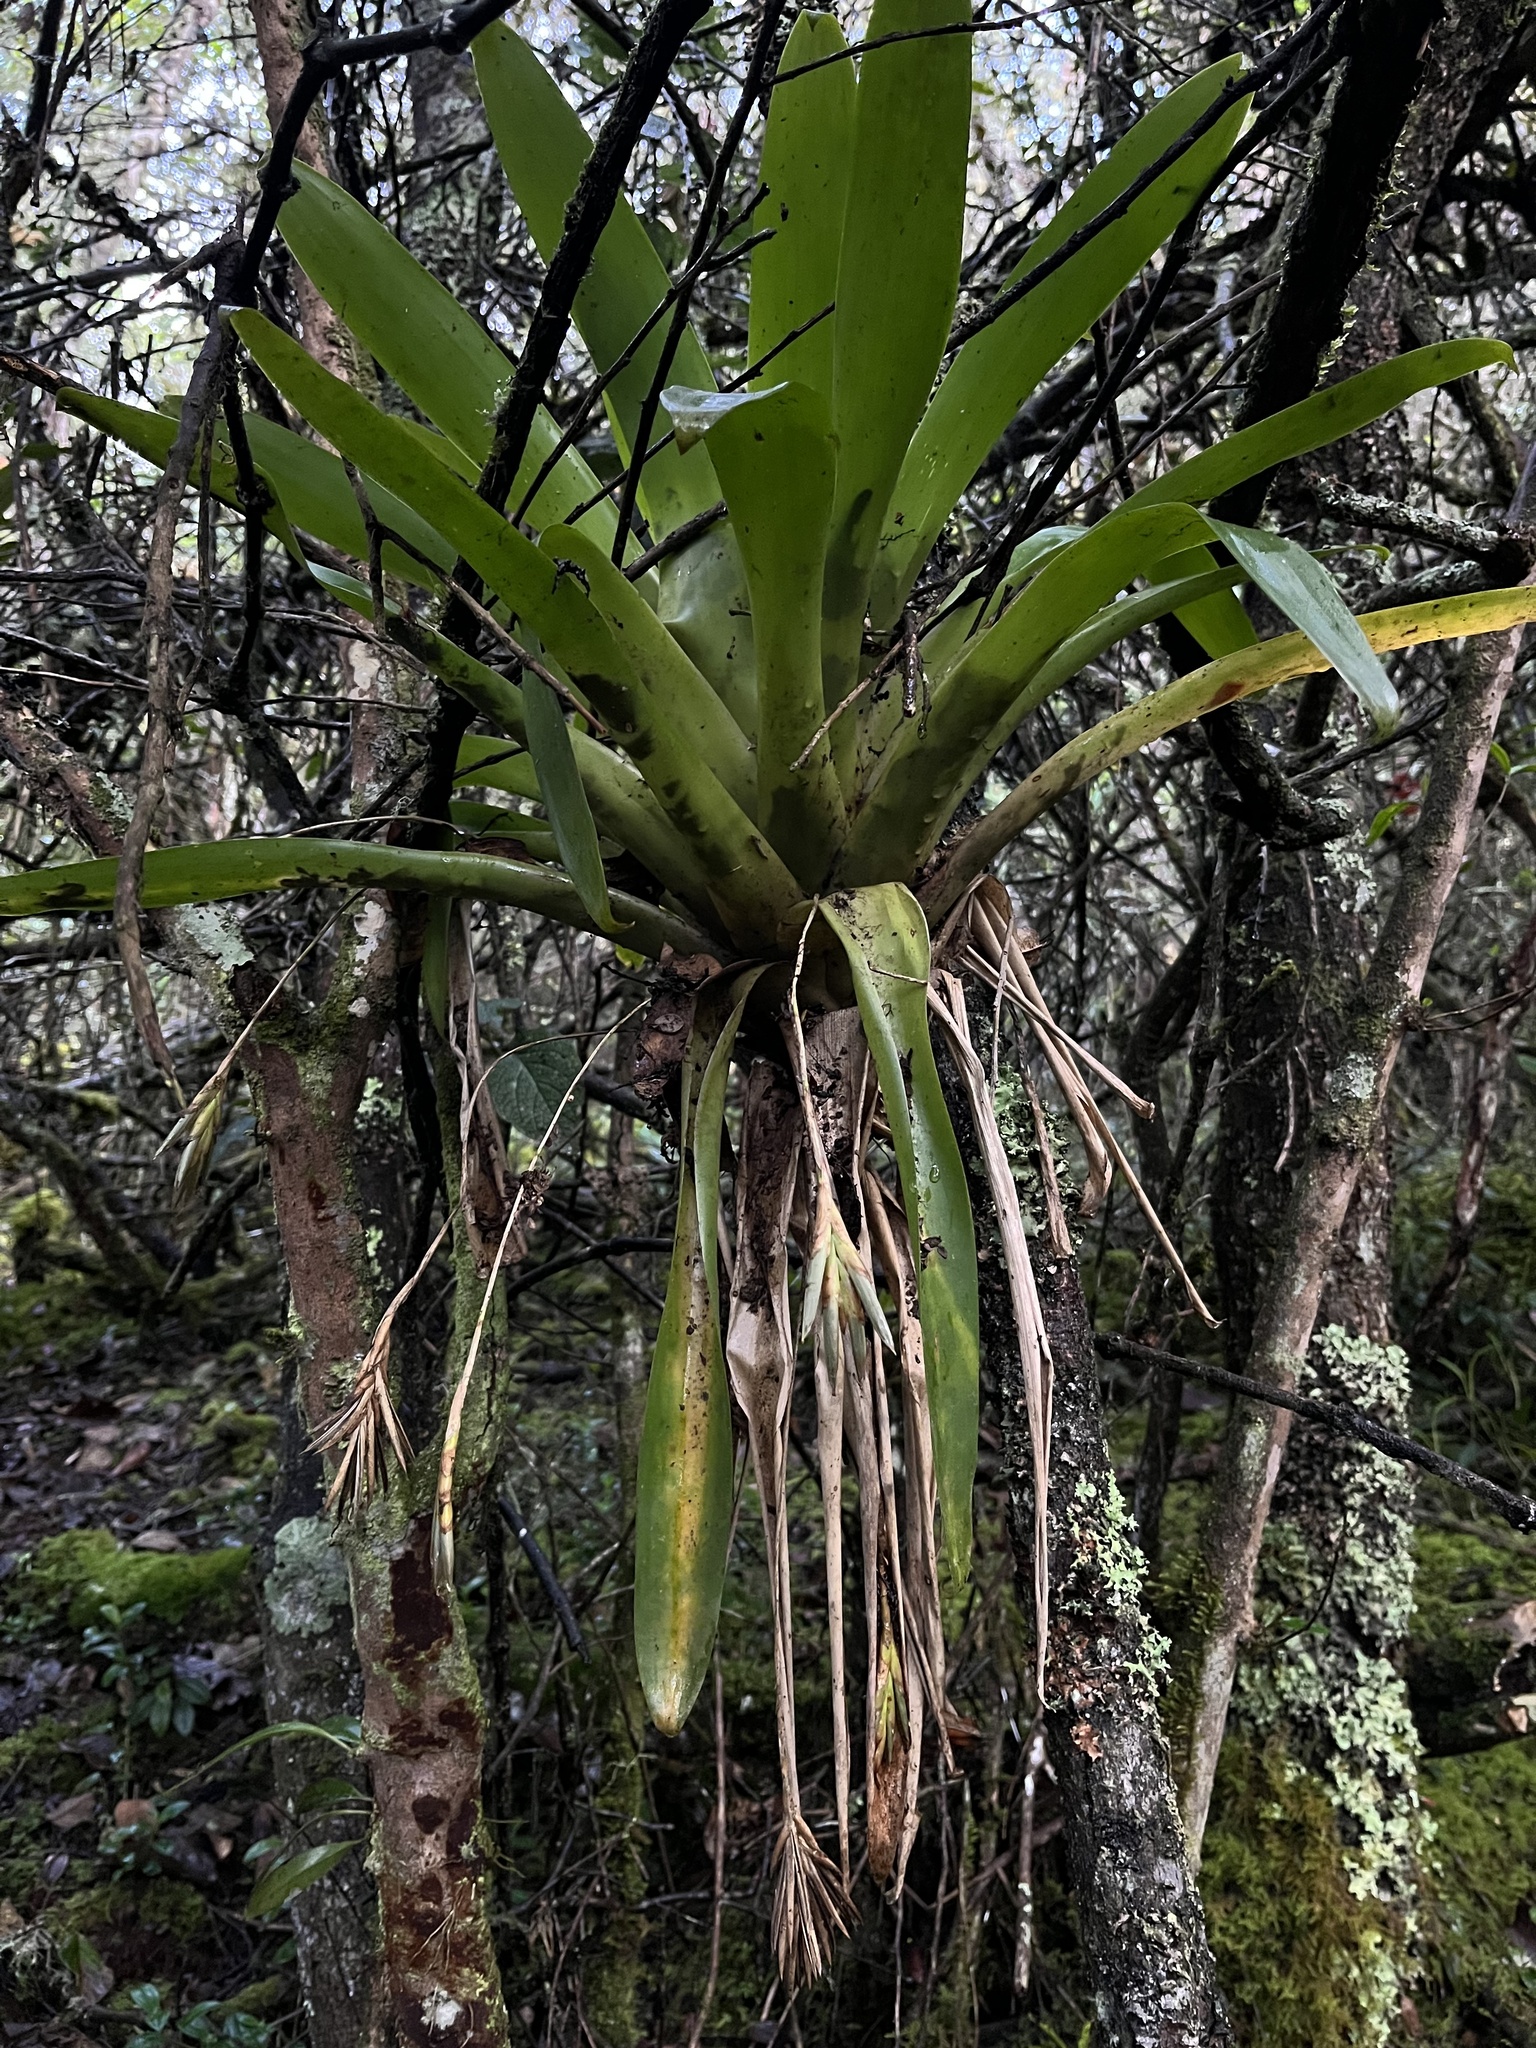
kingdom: Plantae
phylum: Tracheophyta
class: Liliopsida
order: Poales
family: Bromeliaceae
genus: Tillandsia
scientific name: Tillandsia complanata
